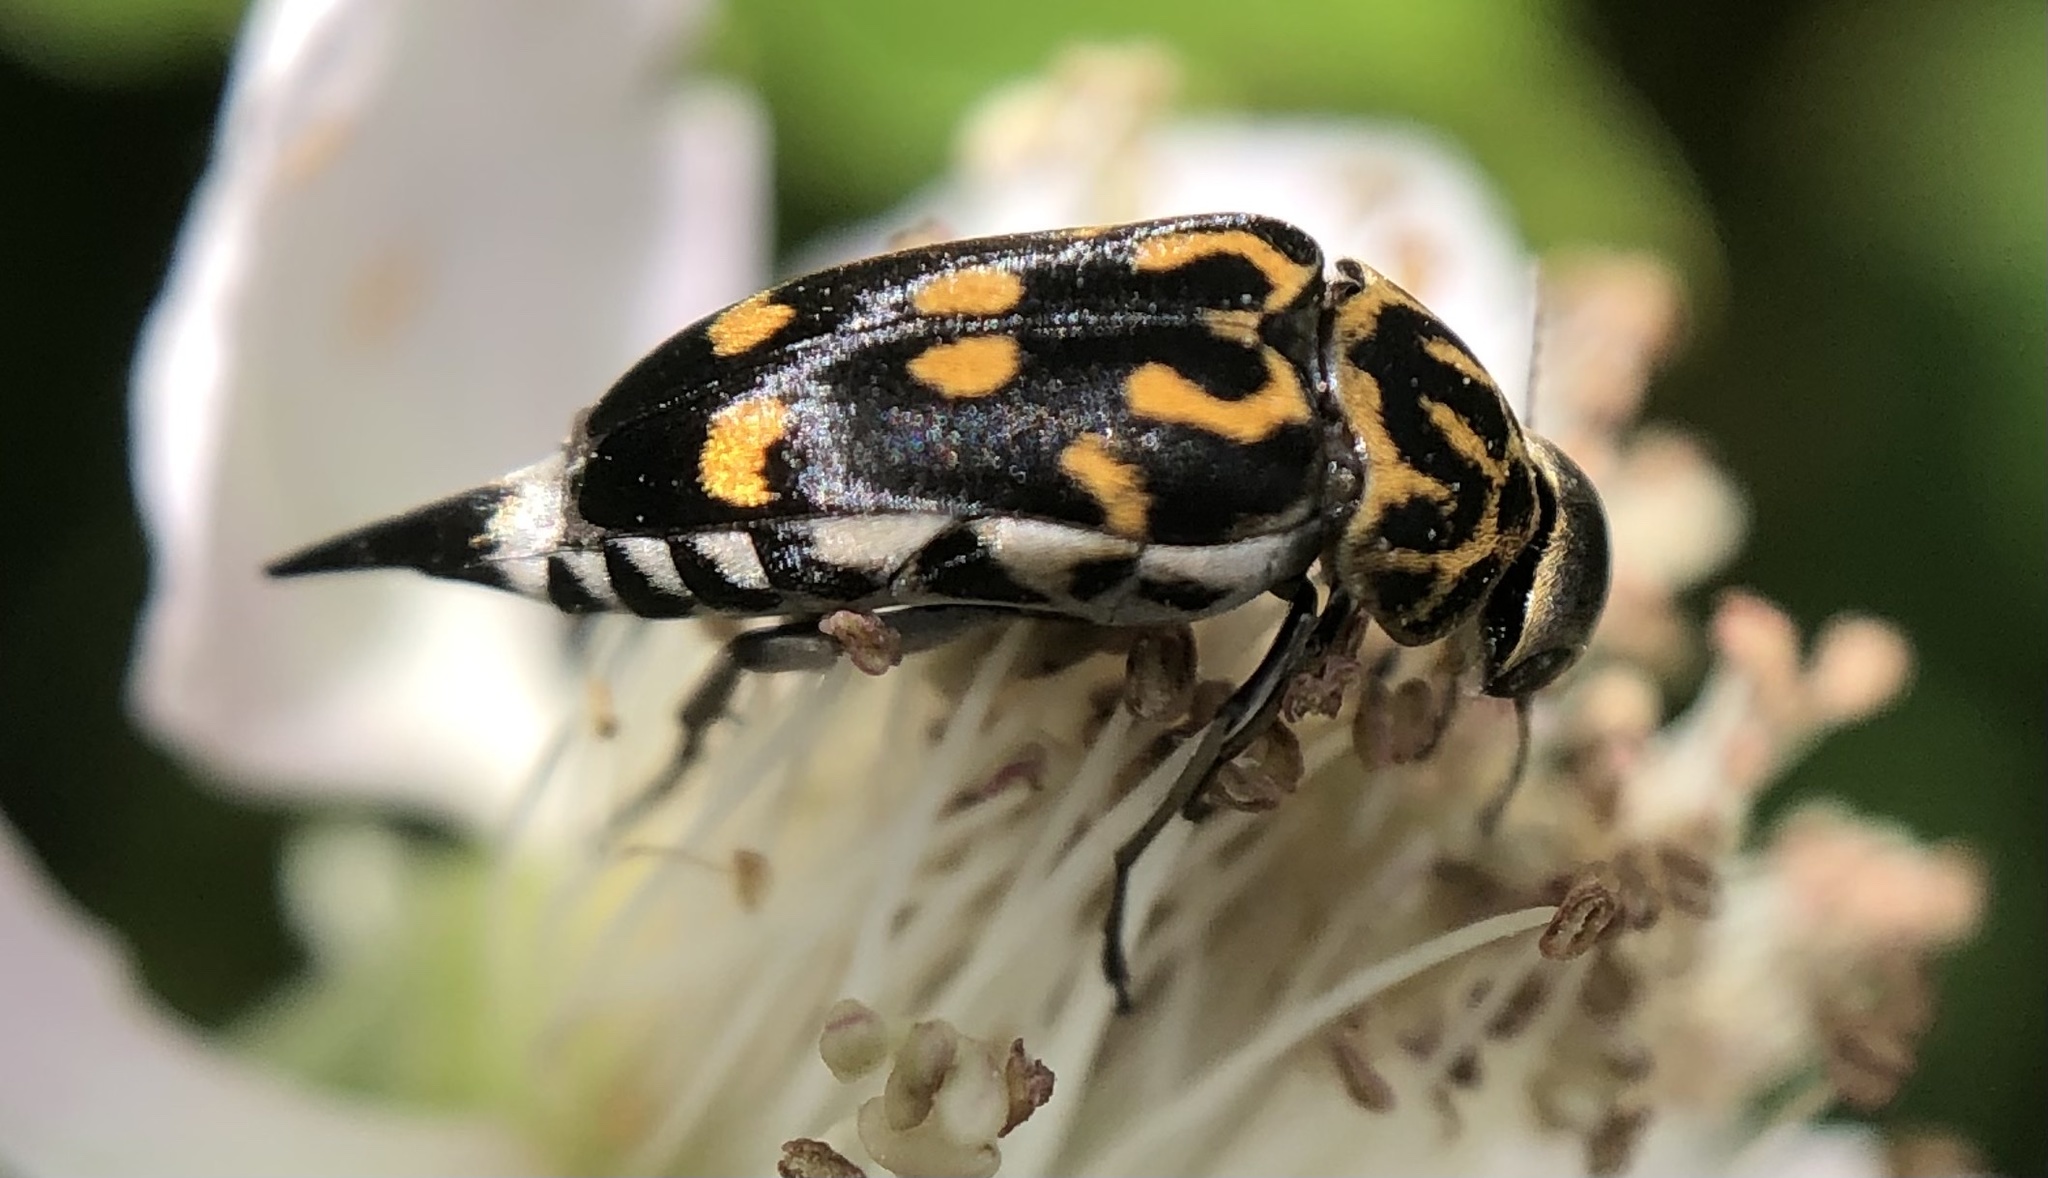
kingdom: Animalia
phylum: Arthropoda
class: Insecta
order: Coleoptera
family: Mordellidae
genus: Hoshihananomia
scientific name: Hoshihananomia octopunctata
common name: Eight-spotted tumbling flower beetle
